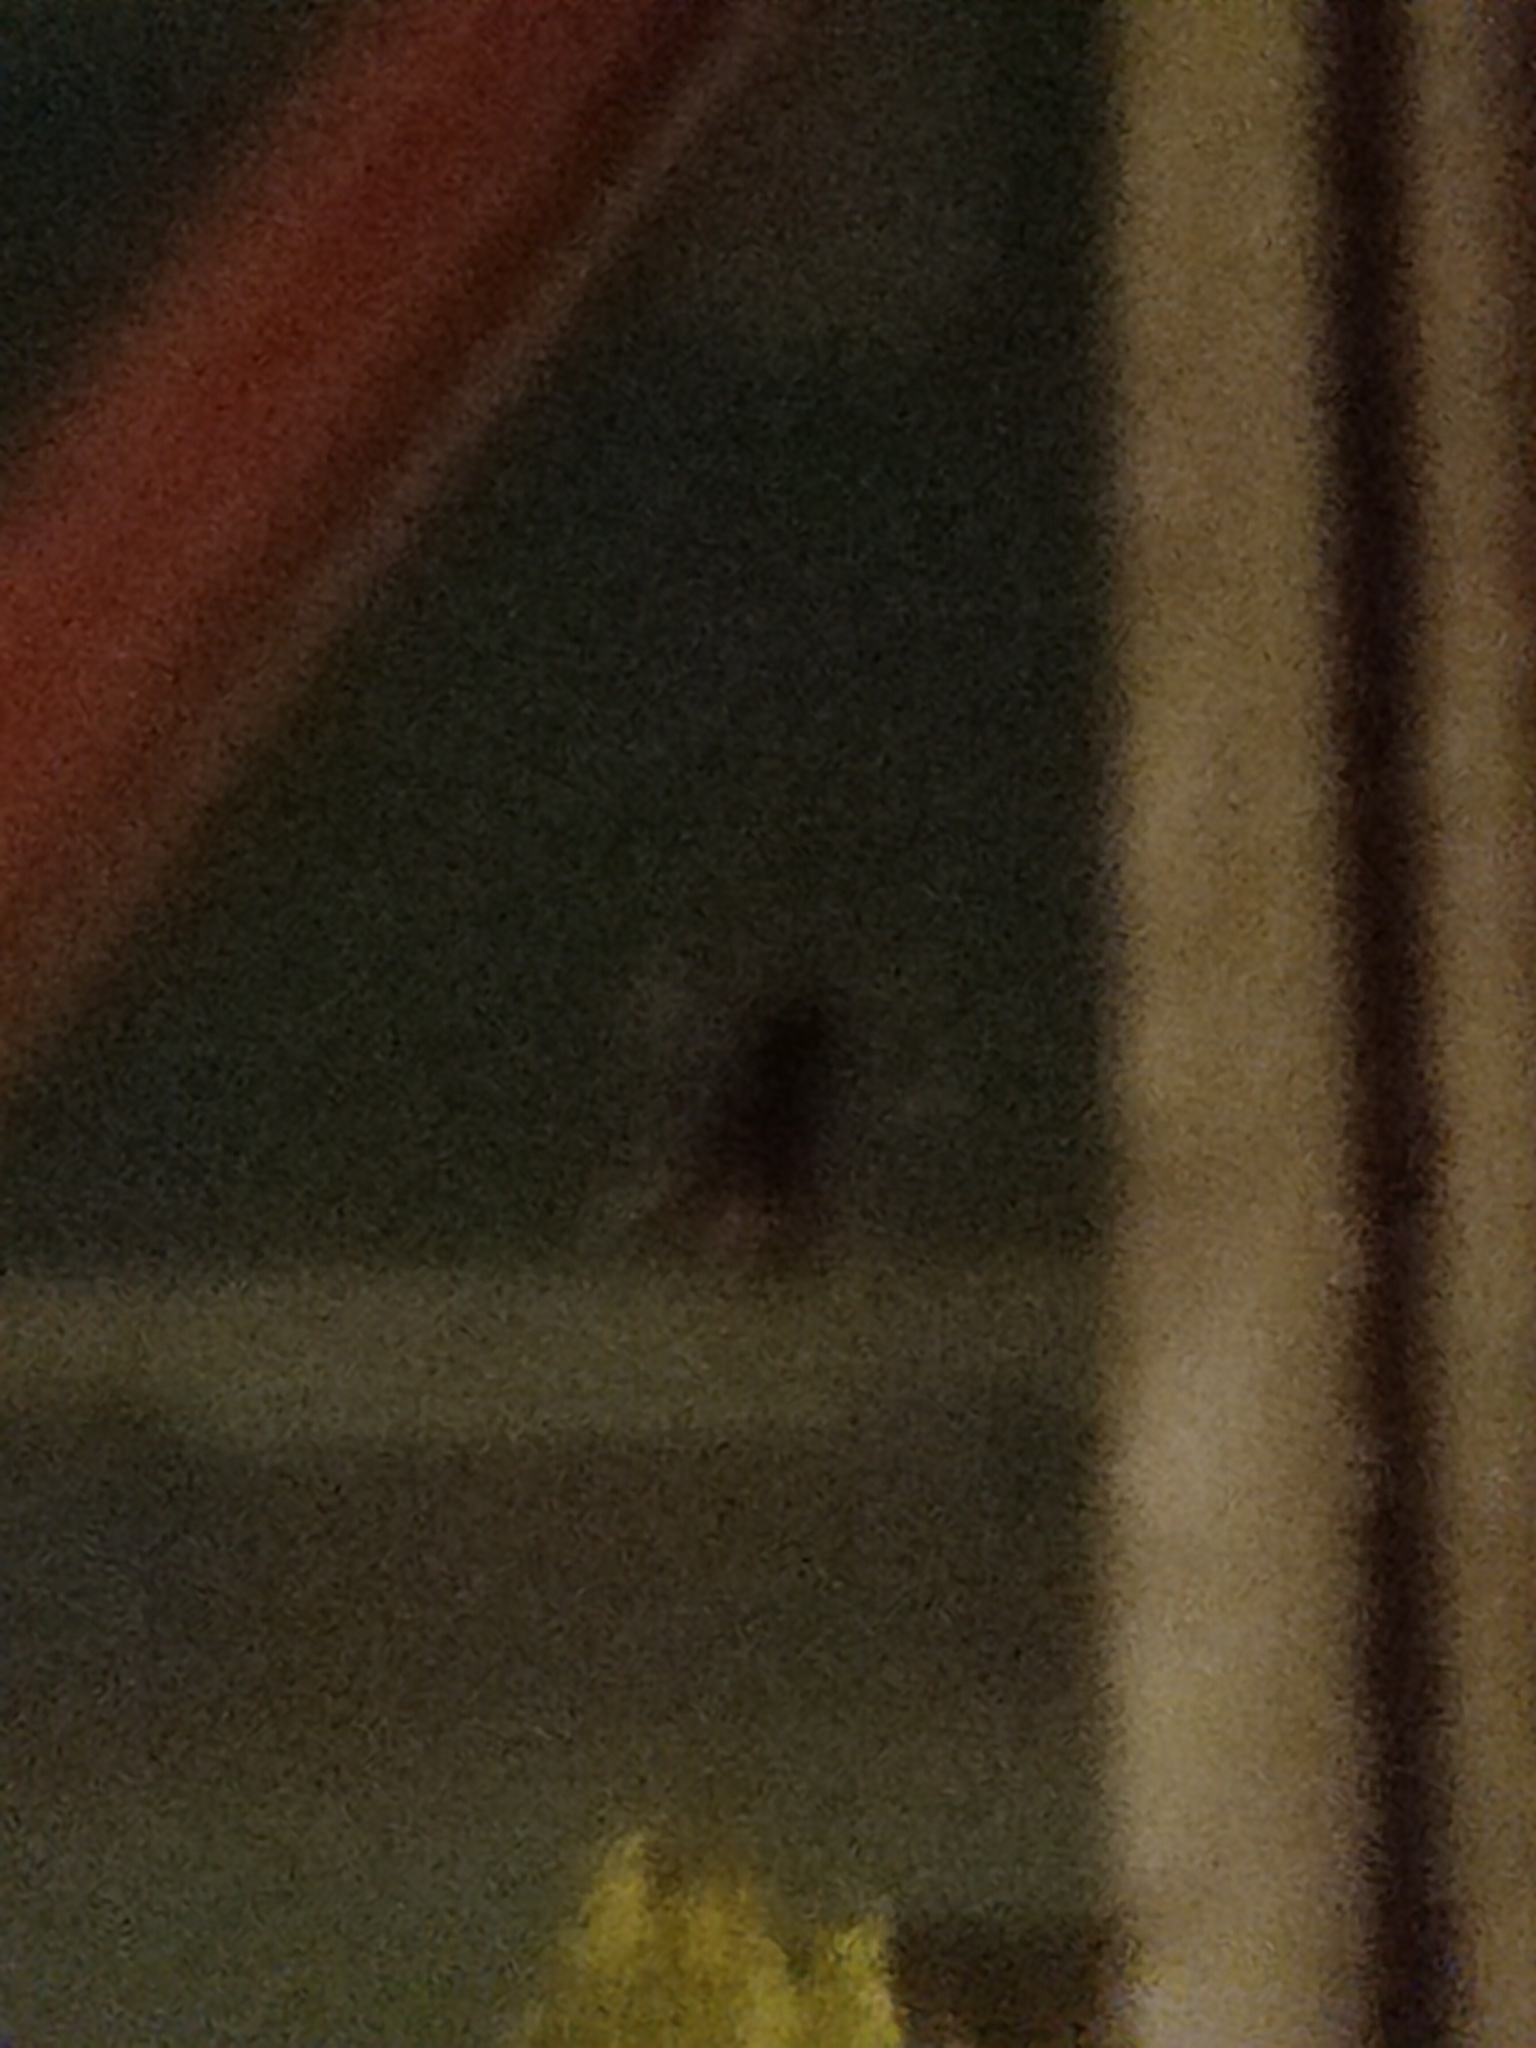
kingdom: Animalia
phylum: Arthropoda
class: Insecta
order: Hymenoptera
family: Vespidae
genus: Vespa
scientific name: Vespa velutina
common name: Asian hornet
